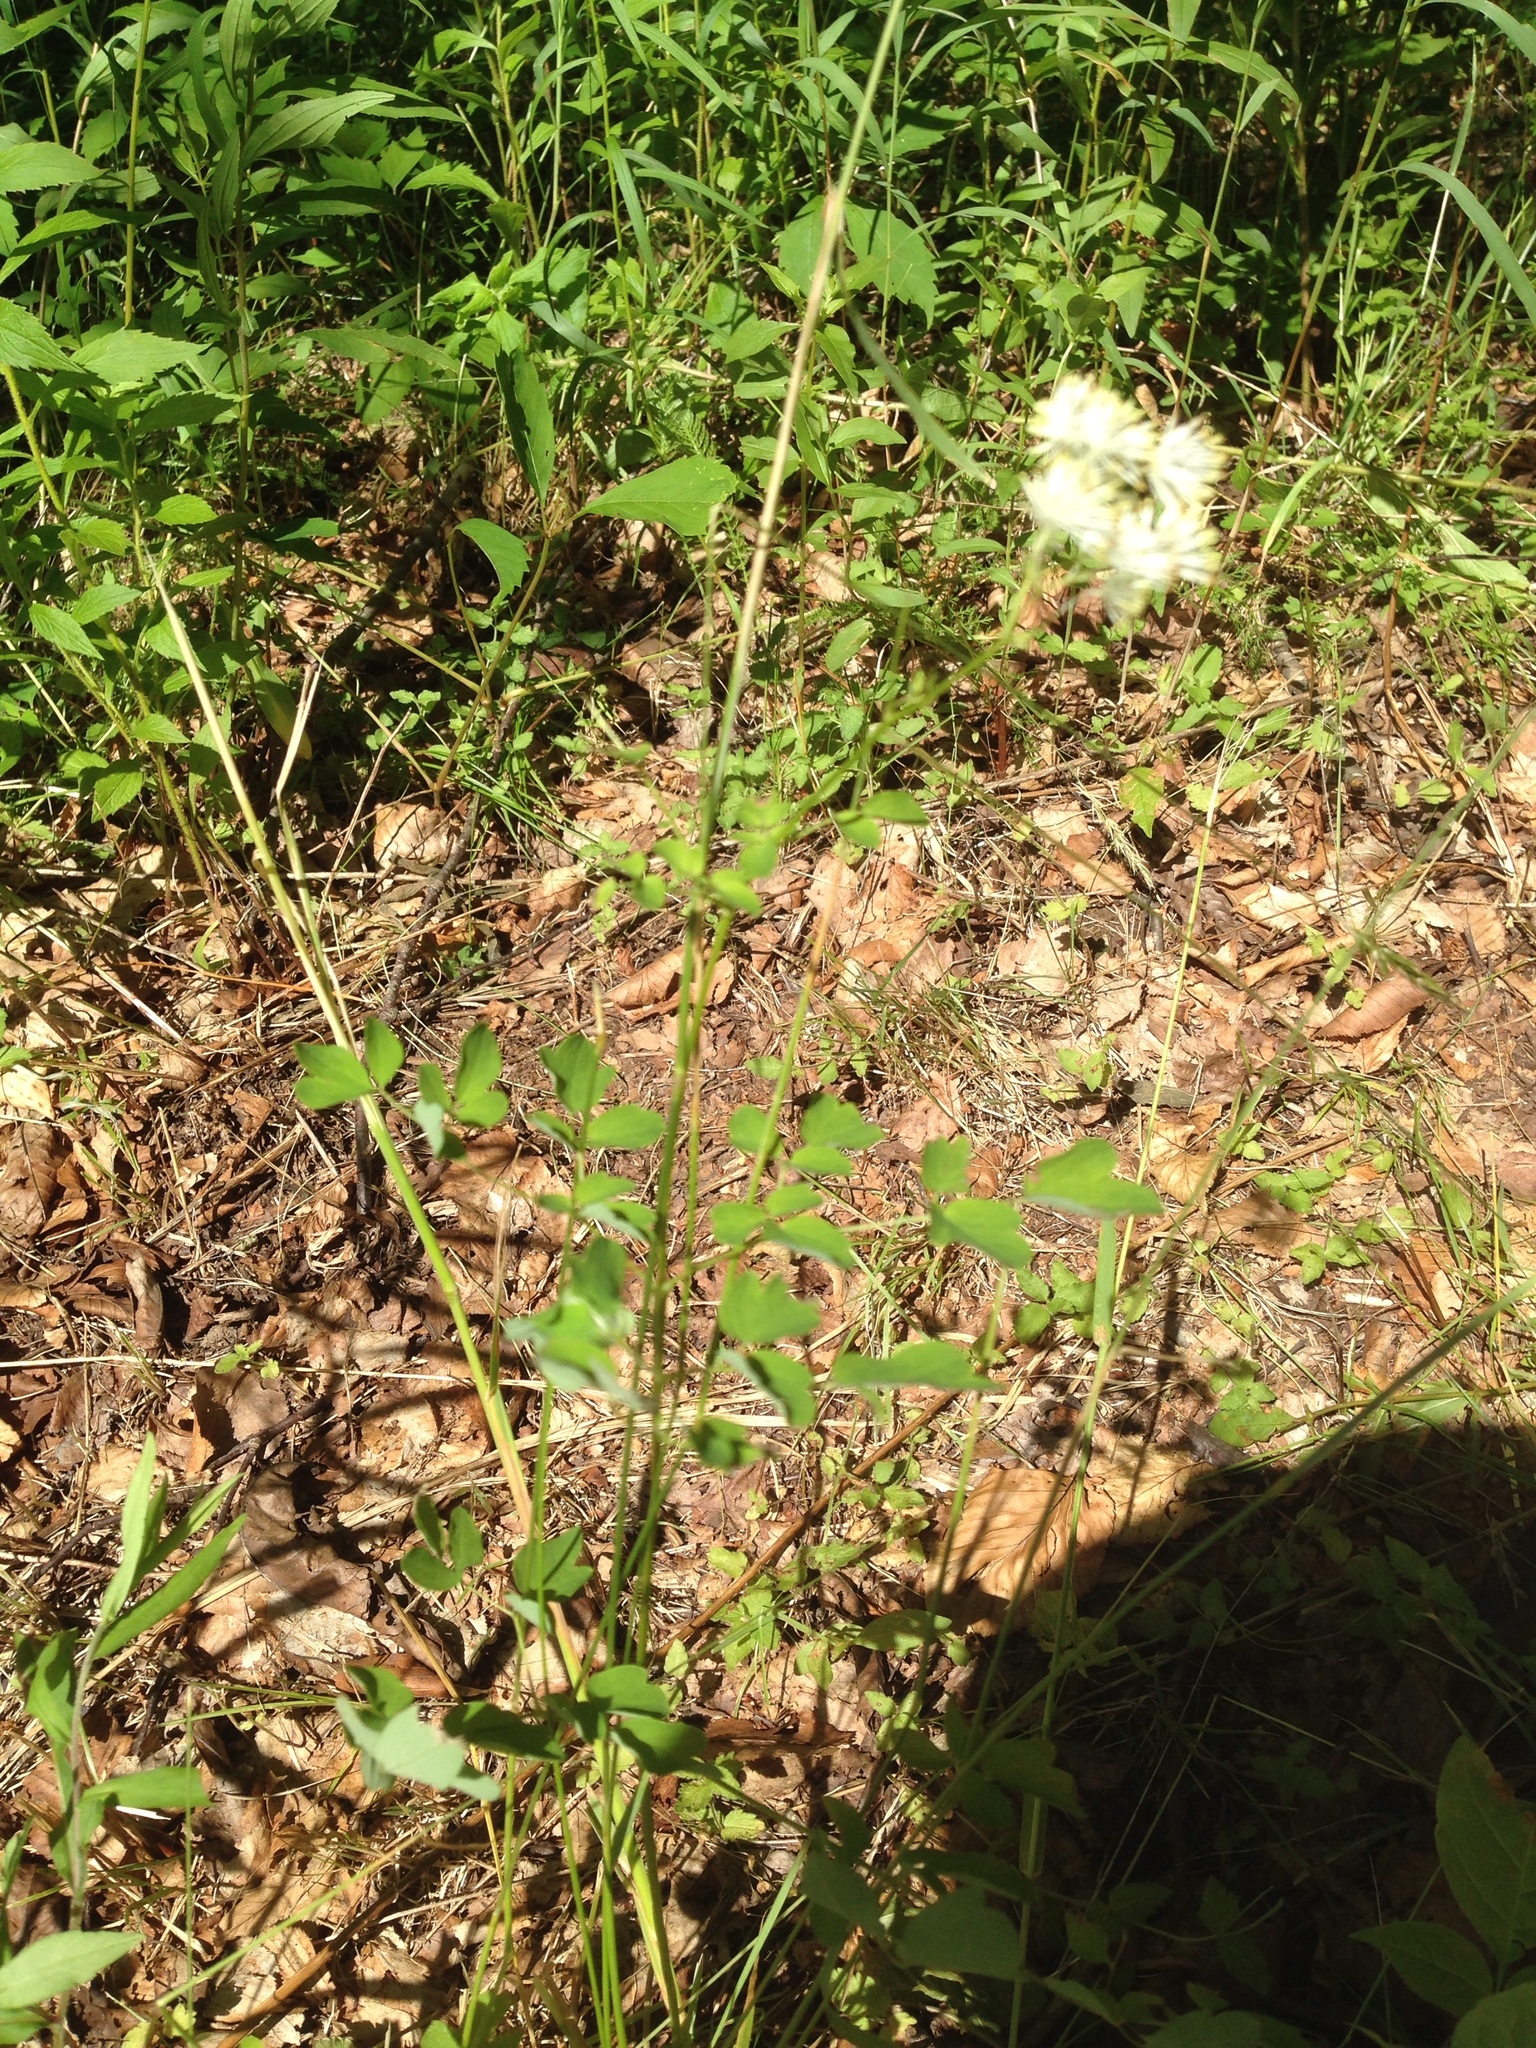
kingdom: Plantae
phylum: Tracheophyta
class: Magnoliopsida
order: Ranunculales
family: Ranunculaceae
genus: Thalictrum
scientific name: Thalictrum pubescens
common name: King-of-the-meadow
